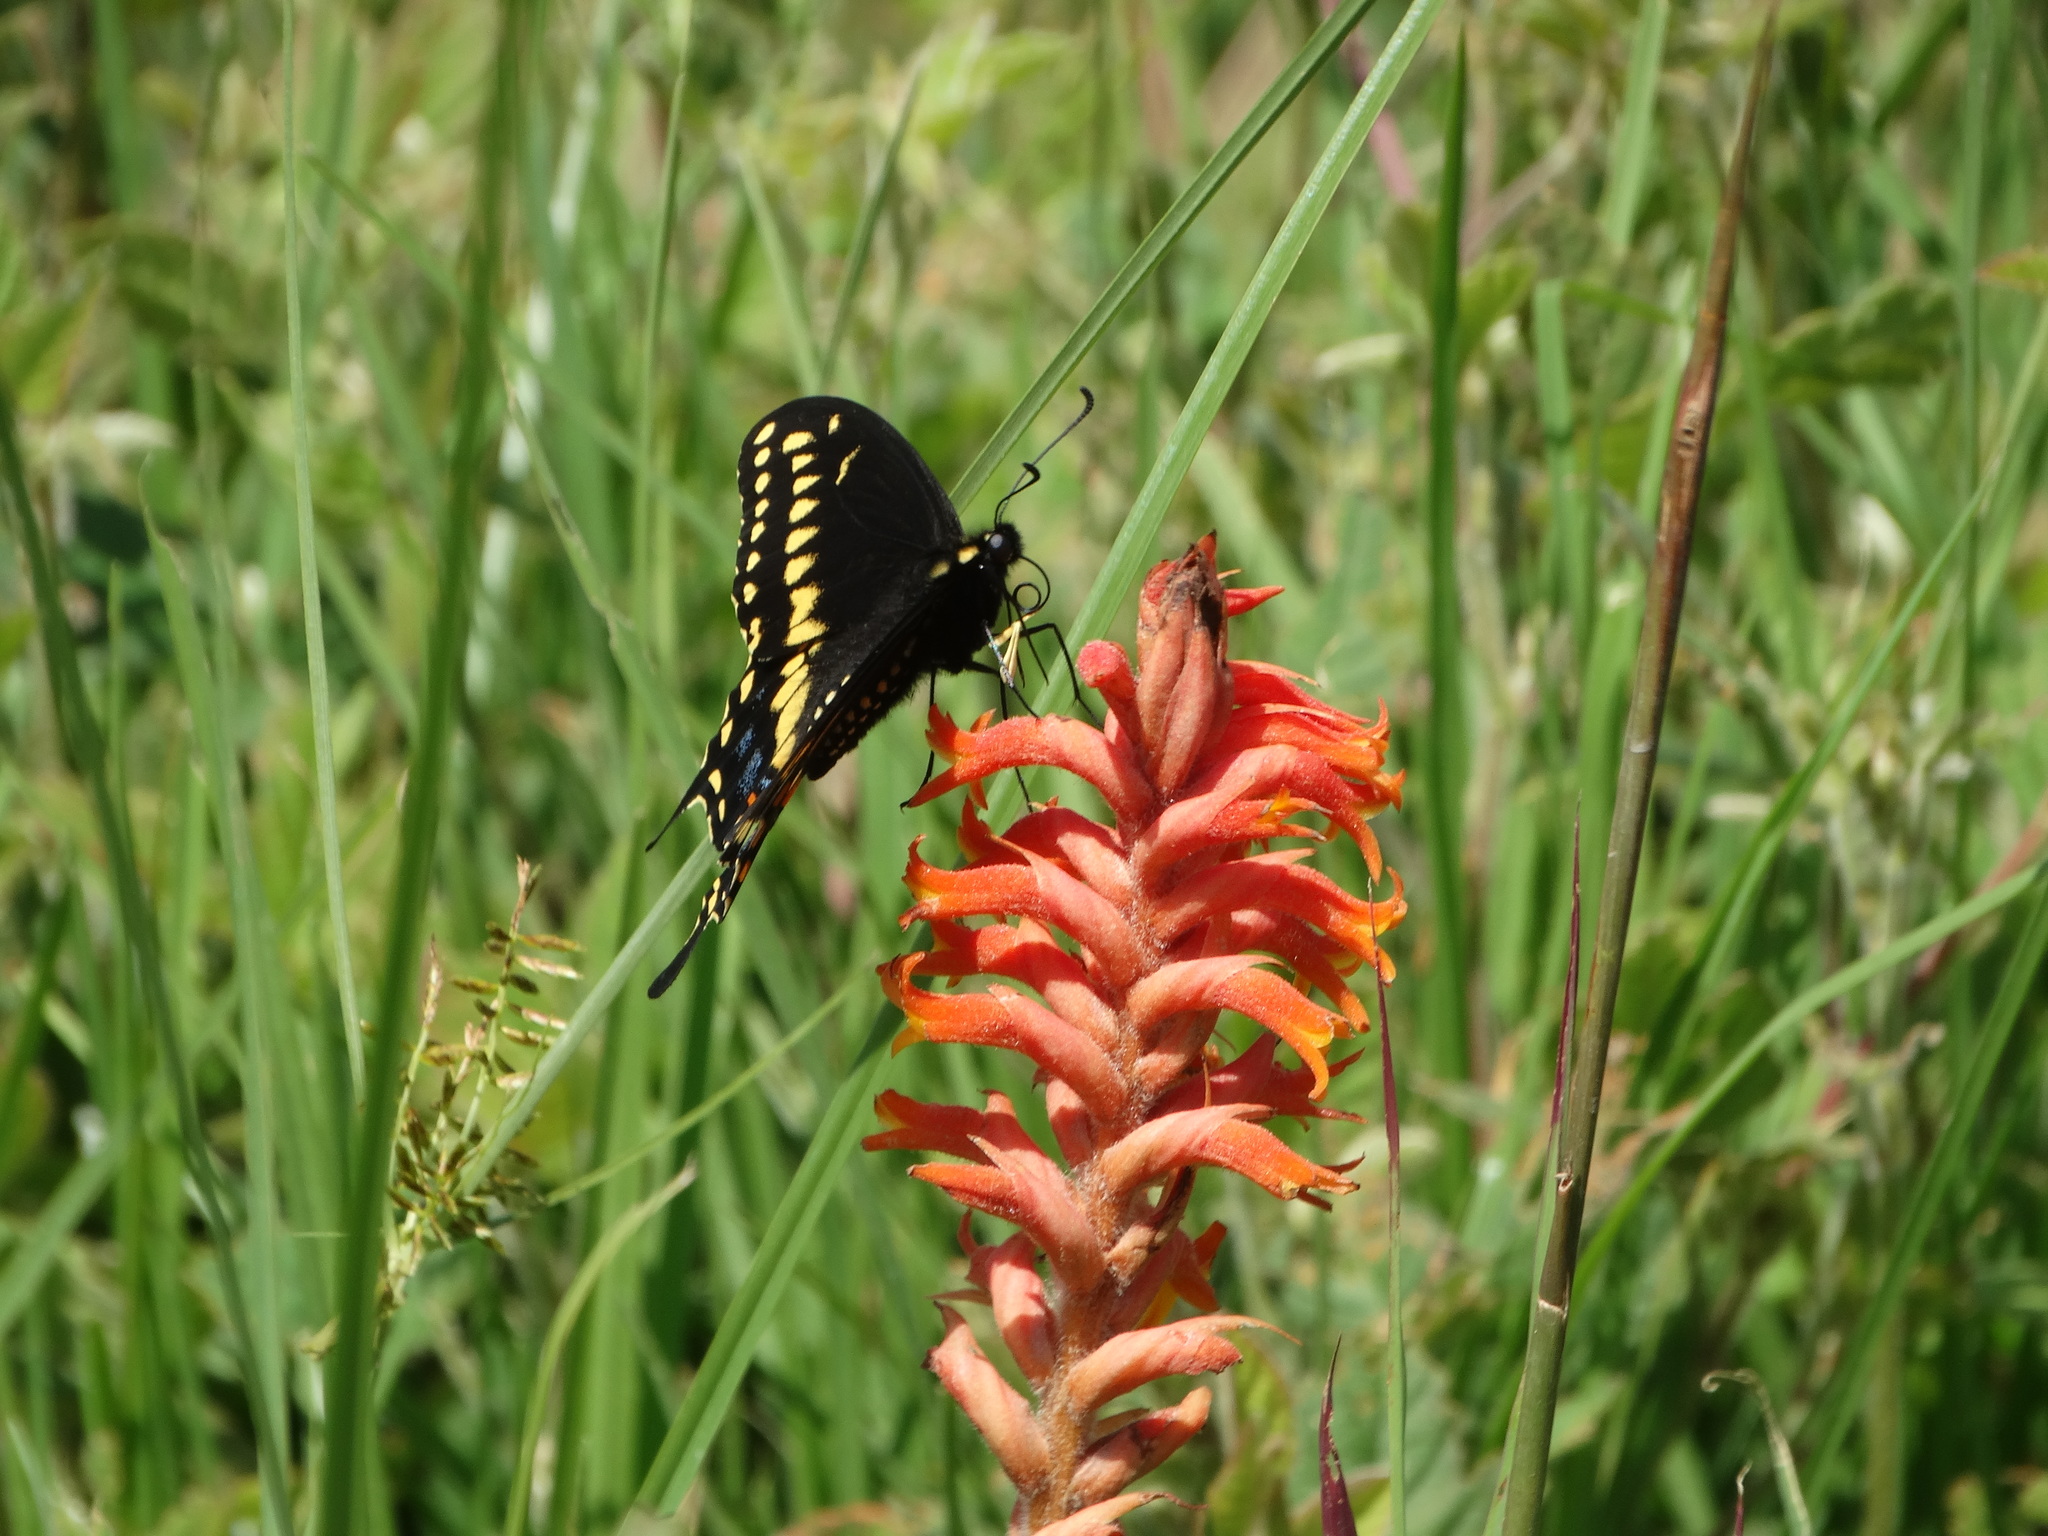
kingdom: Animalia
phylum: Arthropoda
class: Insecta
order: Lepidoptera
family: Papilionidae
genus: Papilio
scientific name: Papilio polyxenes
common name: Black swallowtail
